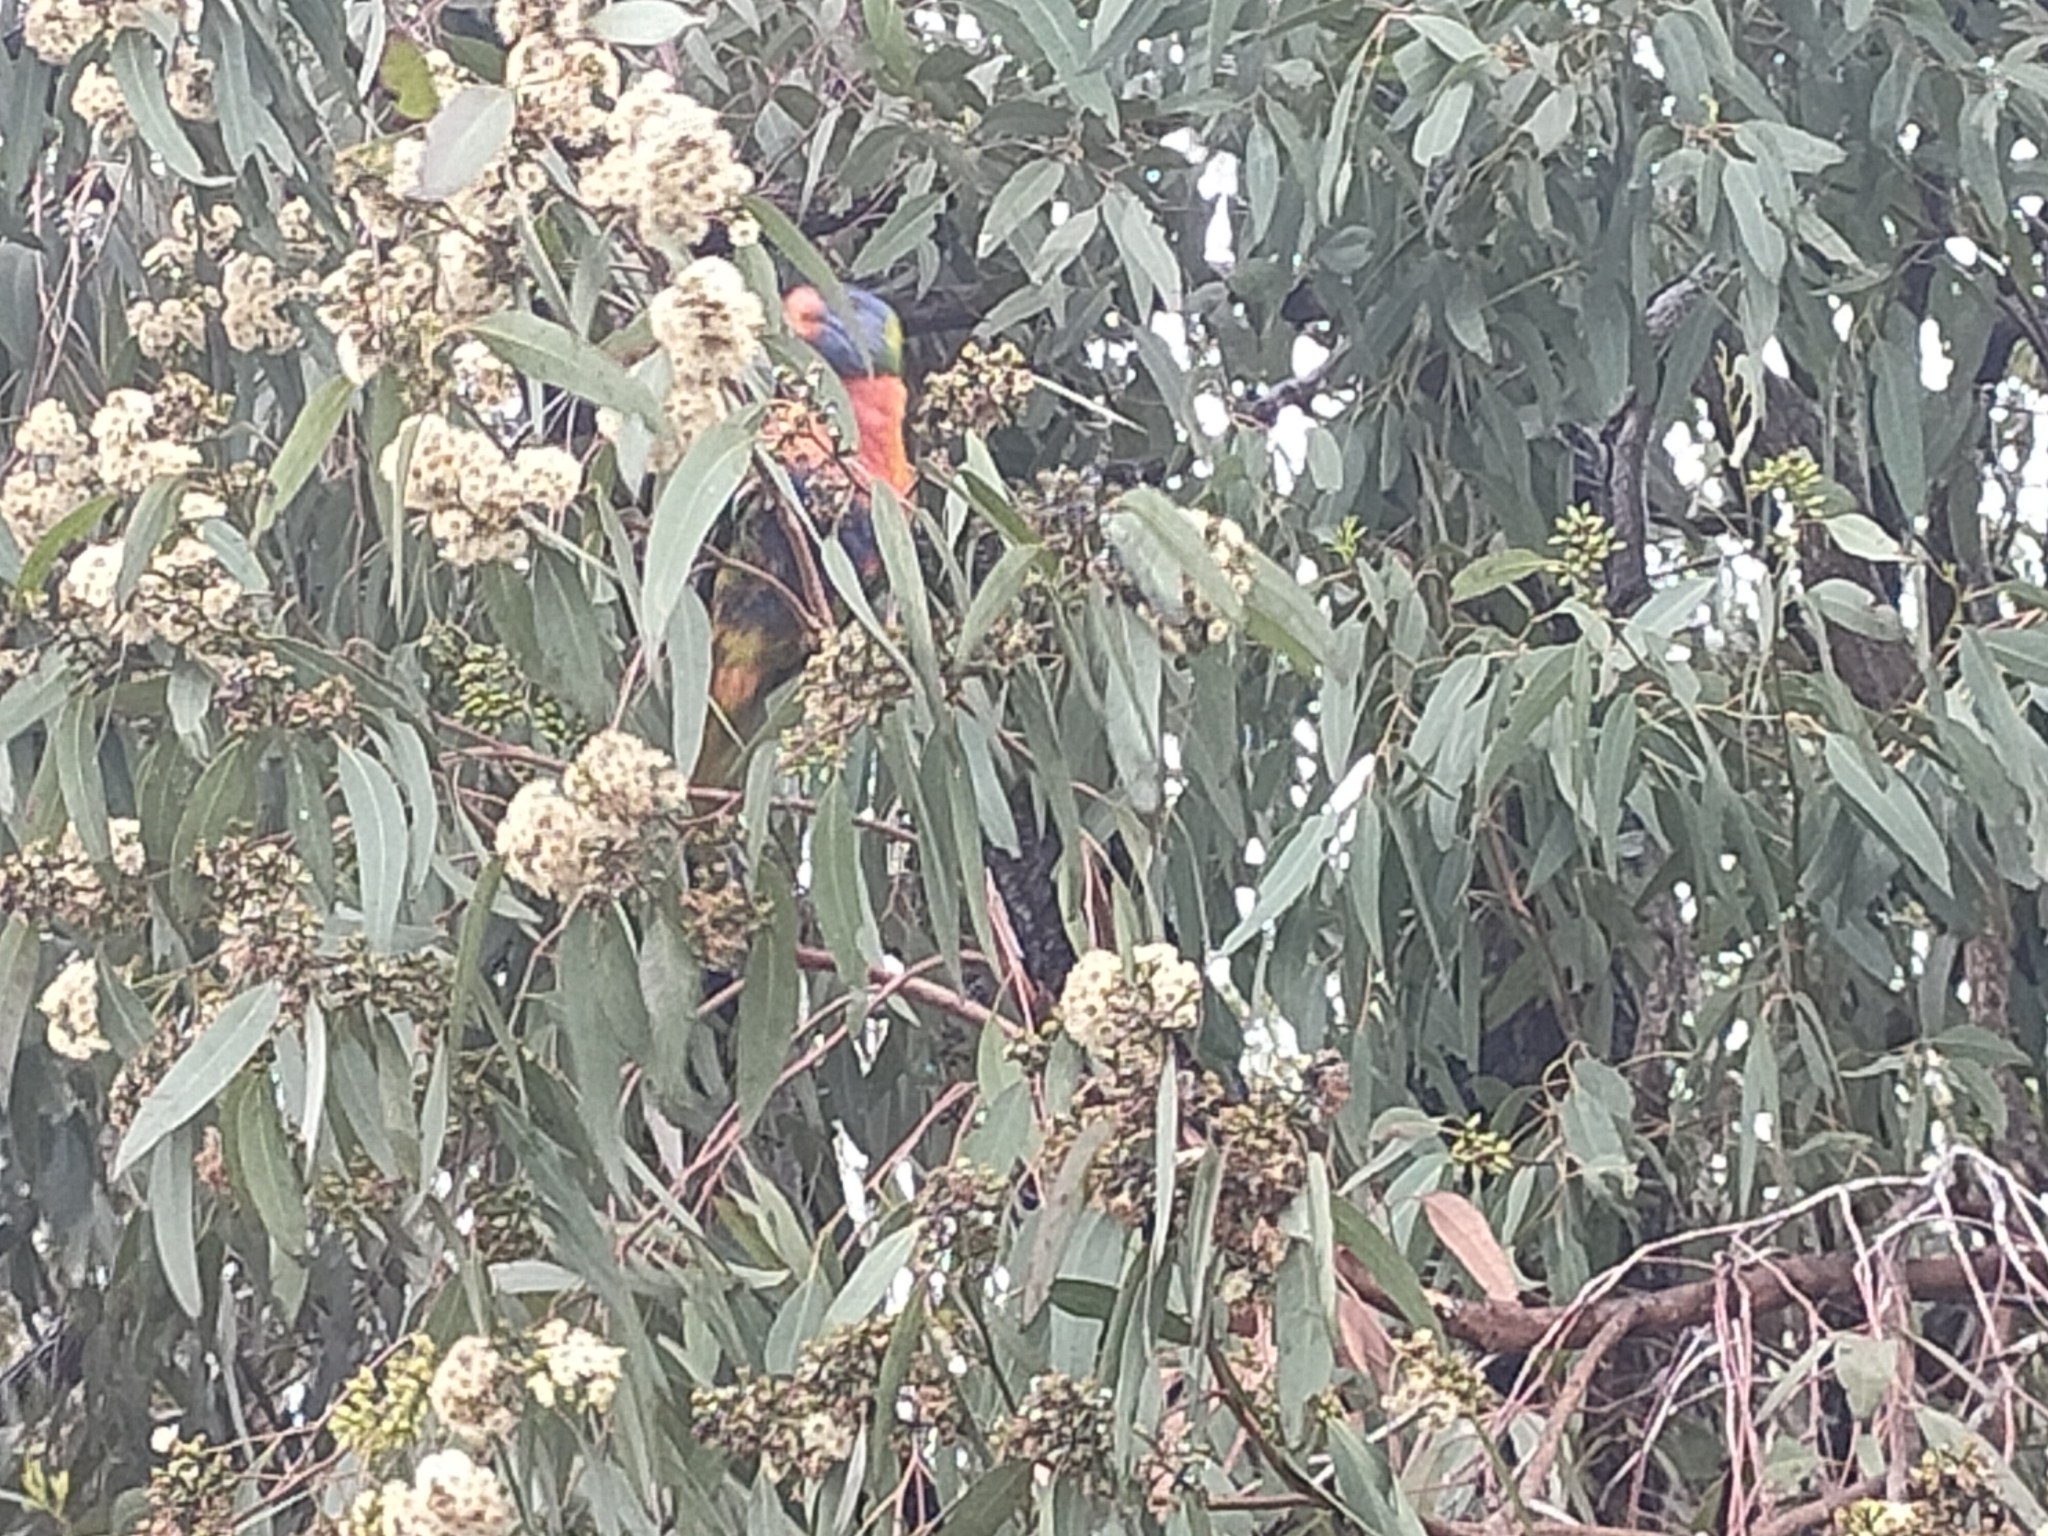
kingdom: Animalia
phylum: Chordata
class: Aves
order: Psittaciformes
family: Psittacidae
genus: Trichoglossus
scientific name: Trichoglossus haematodus
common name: Coconut lorikeet
